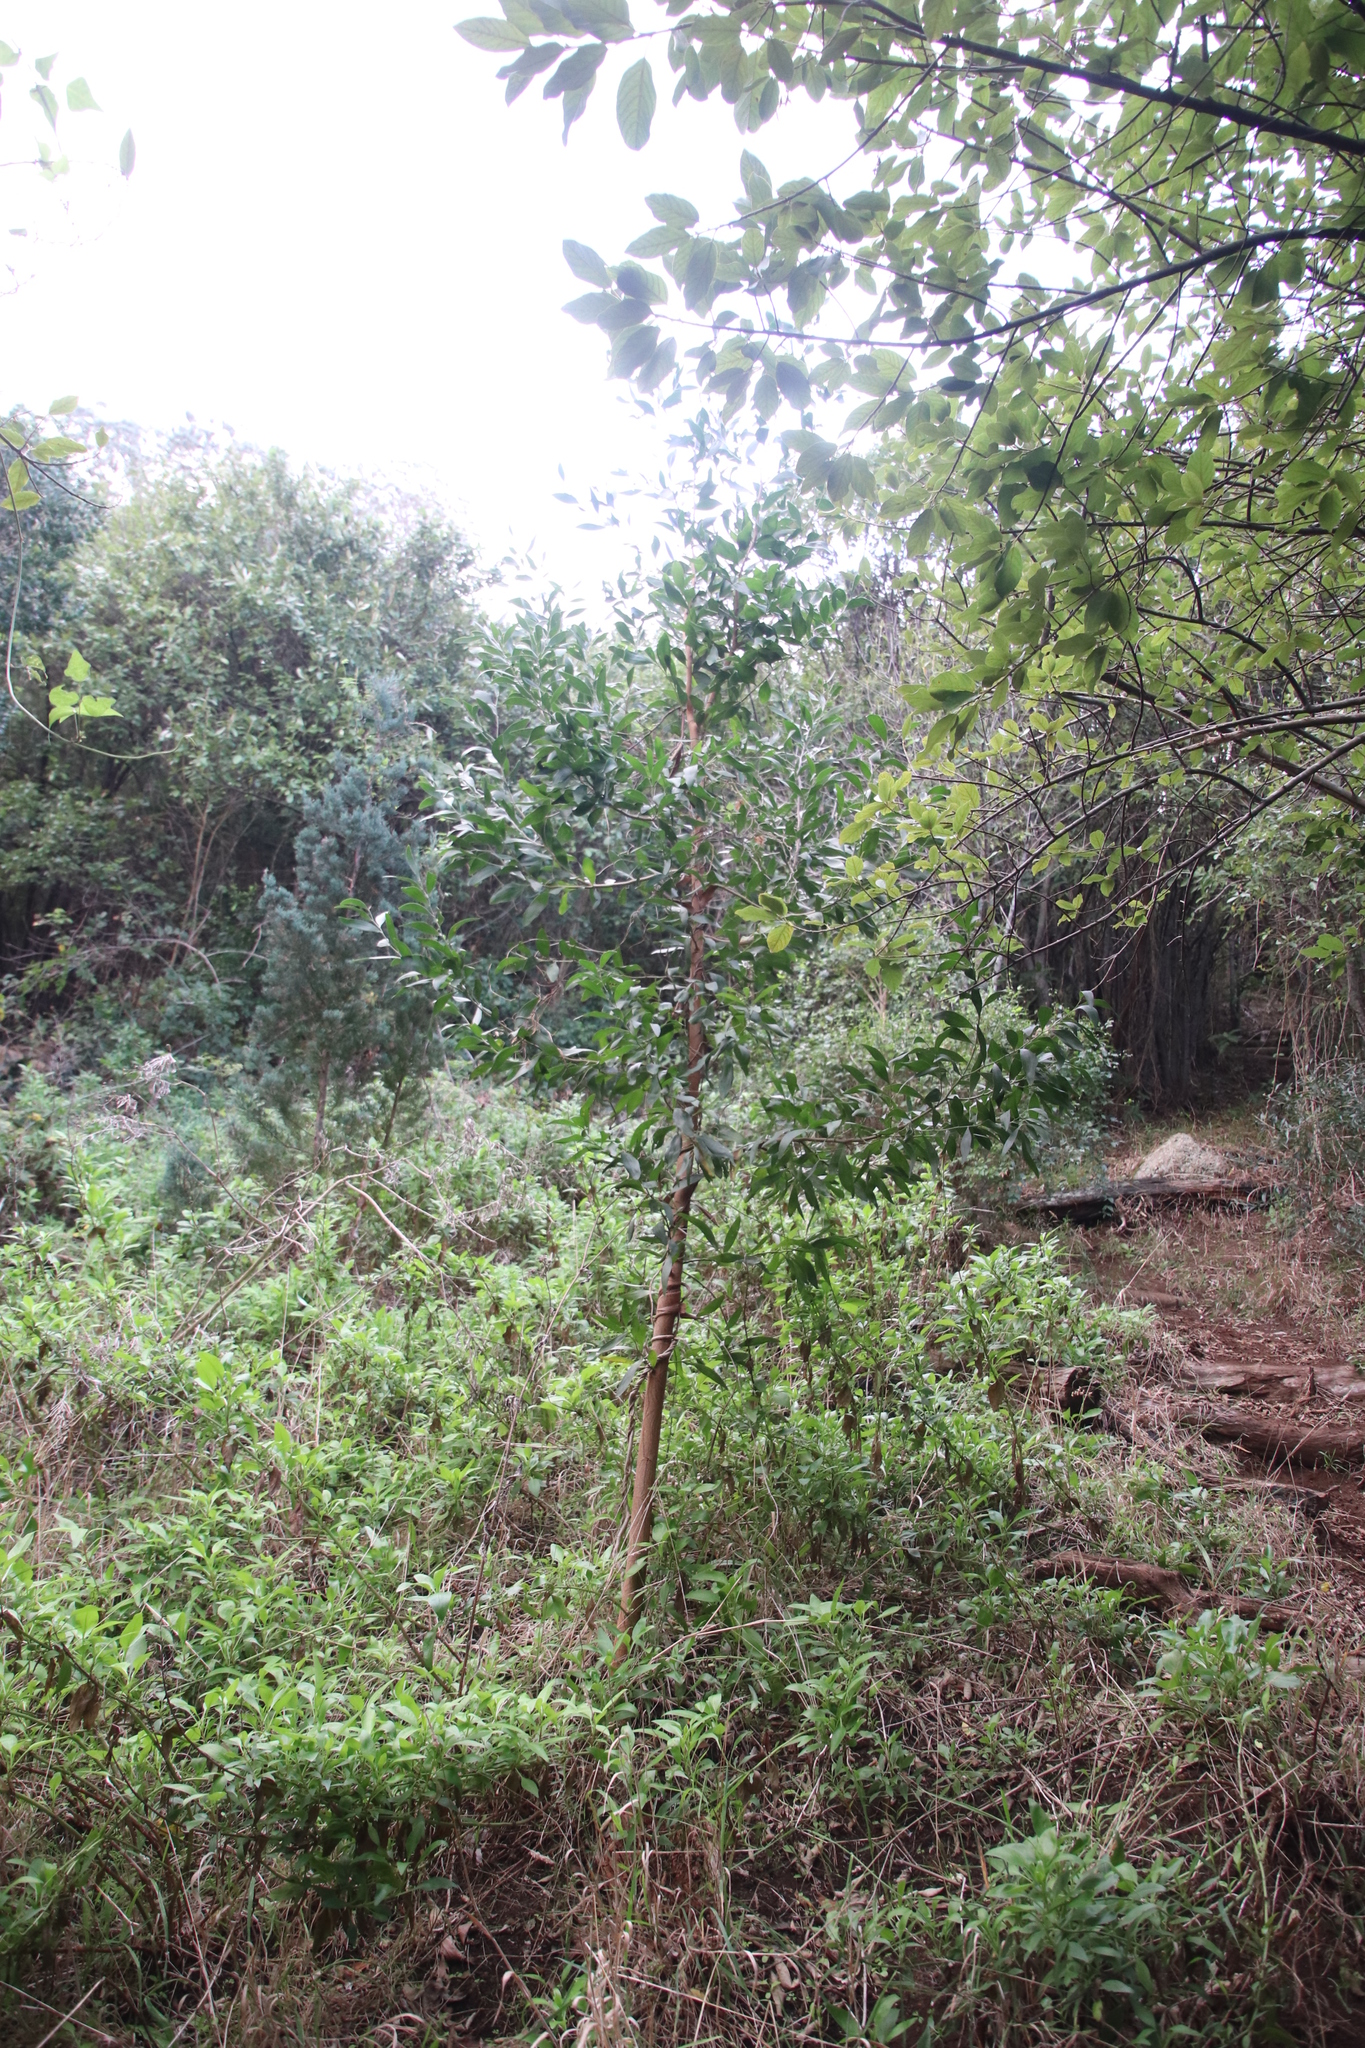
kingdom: Plantae
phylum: Tracheophyta
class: Magnoliopsida
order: Fabales
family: Fabaceae
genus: Acacia
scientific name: Acacia melanoxylon
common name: Blackwood
